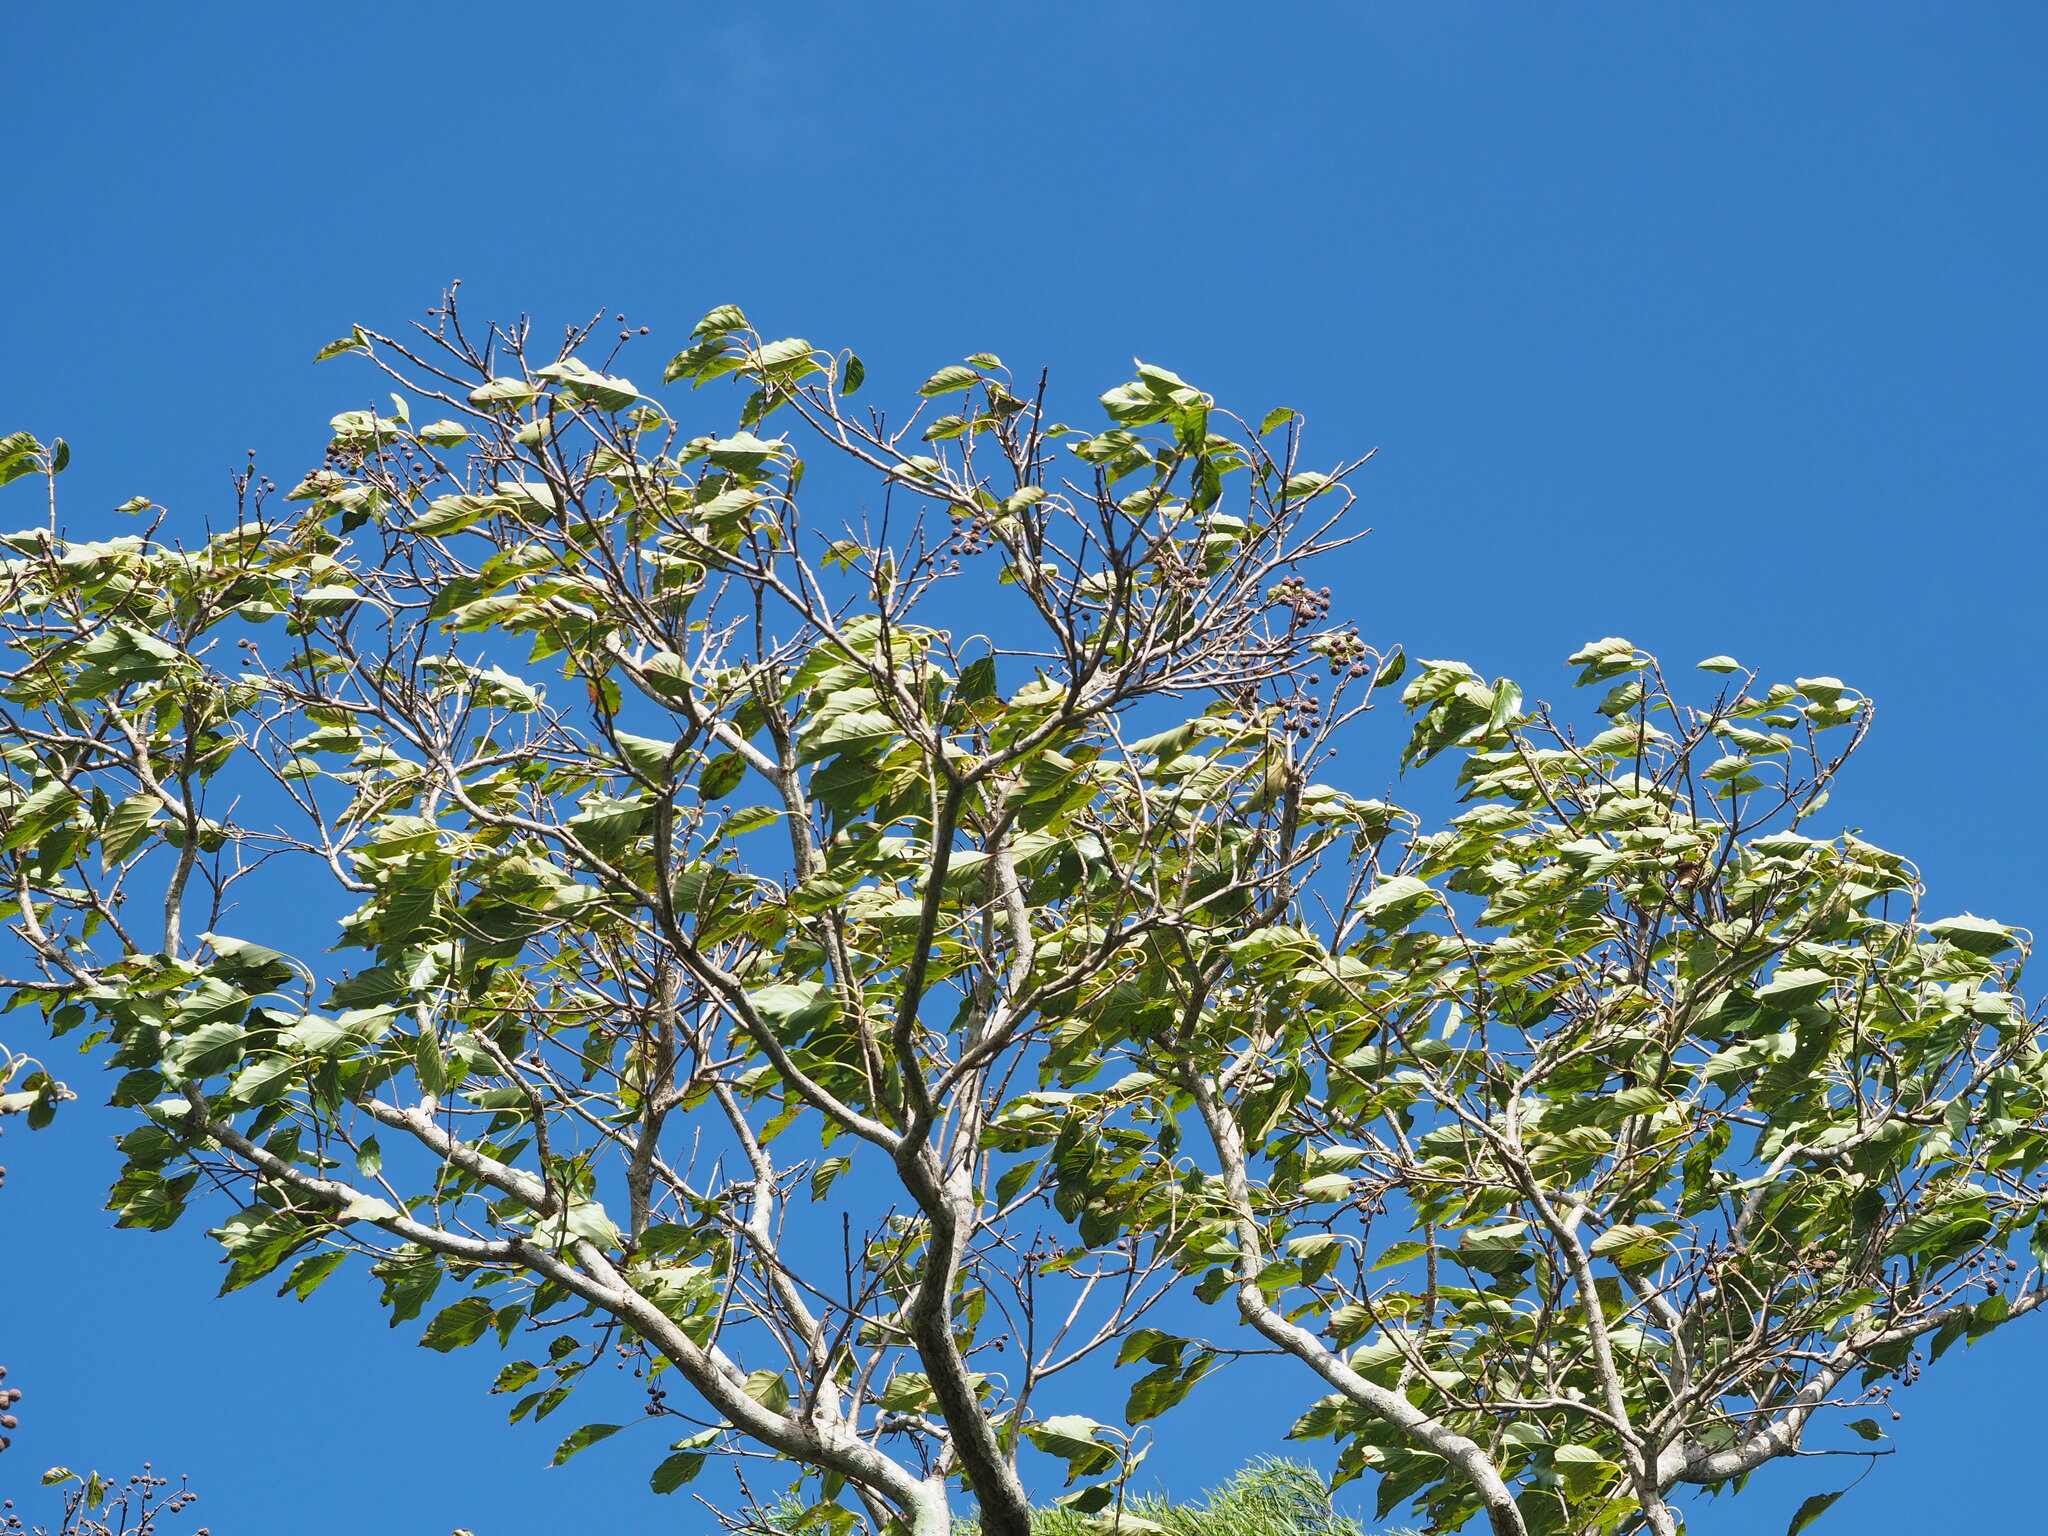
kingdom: Plantae
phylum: Tracheophyta
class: Magnoliopsida
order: Gentianales
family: Rubiaceae
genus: Adina
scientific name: Adina racemosa
